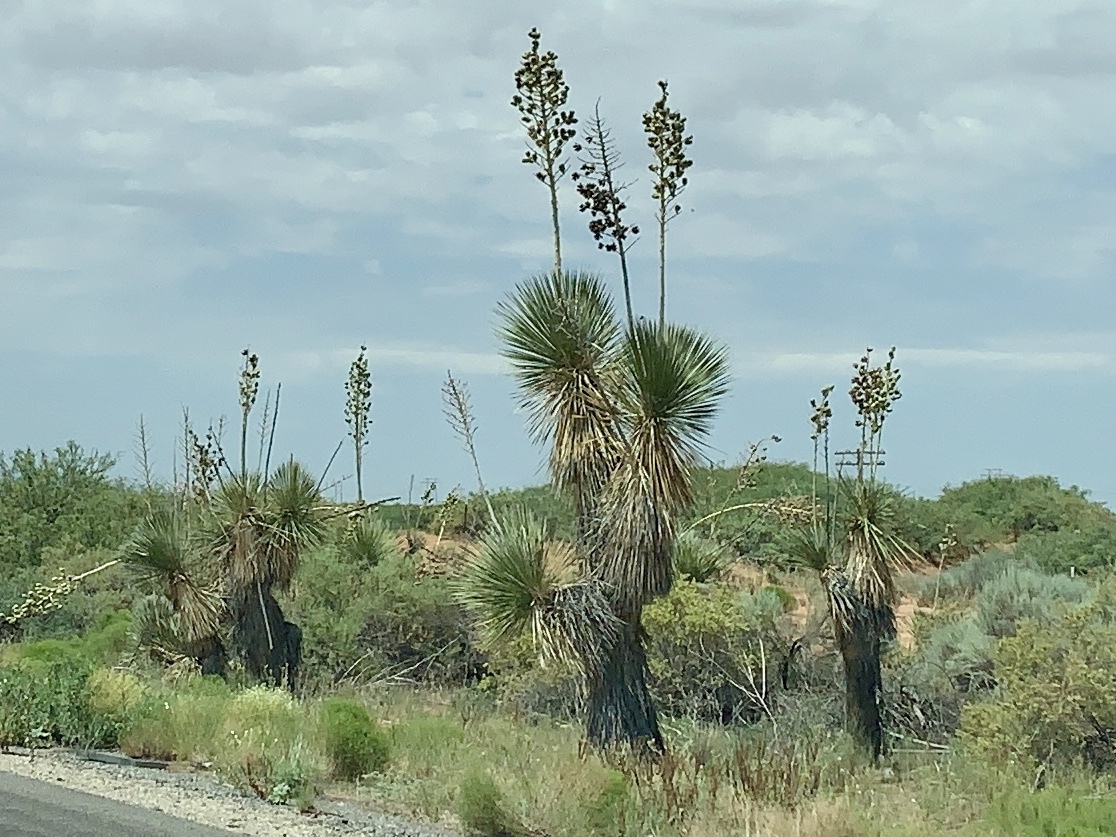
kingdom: Plantae
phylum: Tracheophyta
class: Liliopsida
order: Asparagales
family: Asparagaceae
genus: Yucca
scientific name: Yucca elata
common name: Palmella
